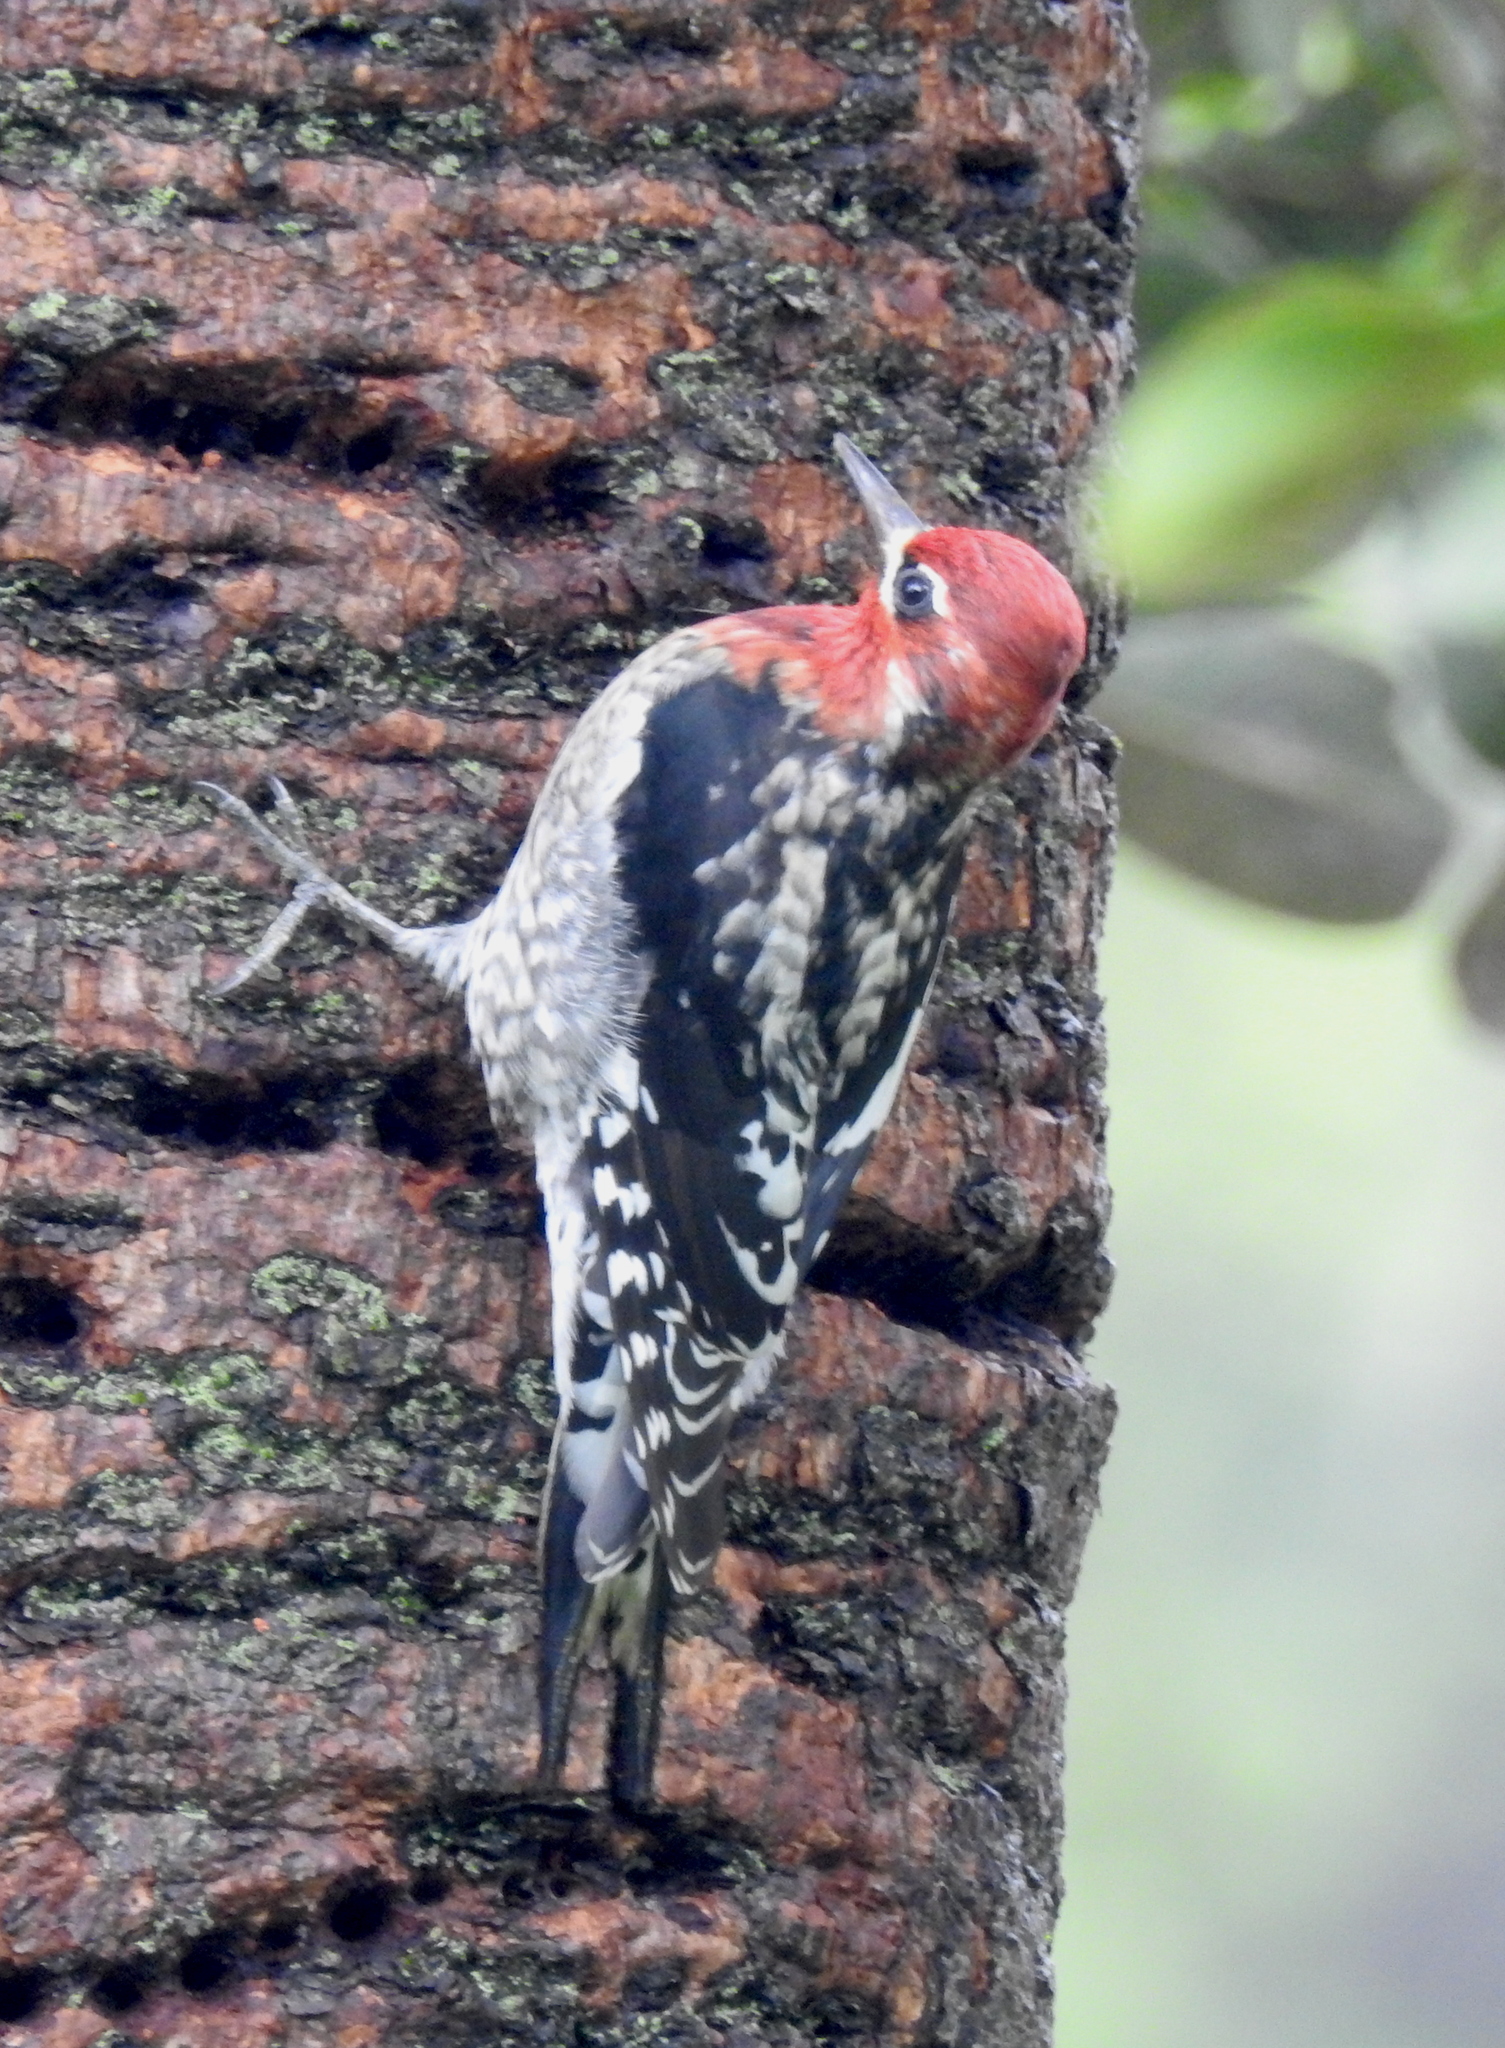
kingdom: Animalia
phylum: Chordata
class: Aves
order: Piciformes
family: Picidae
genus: Sphyrapicus
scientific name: Sphyrapicus
